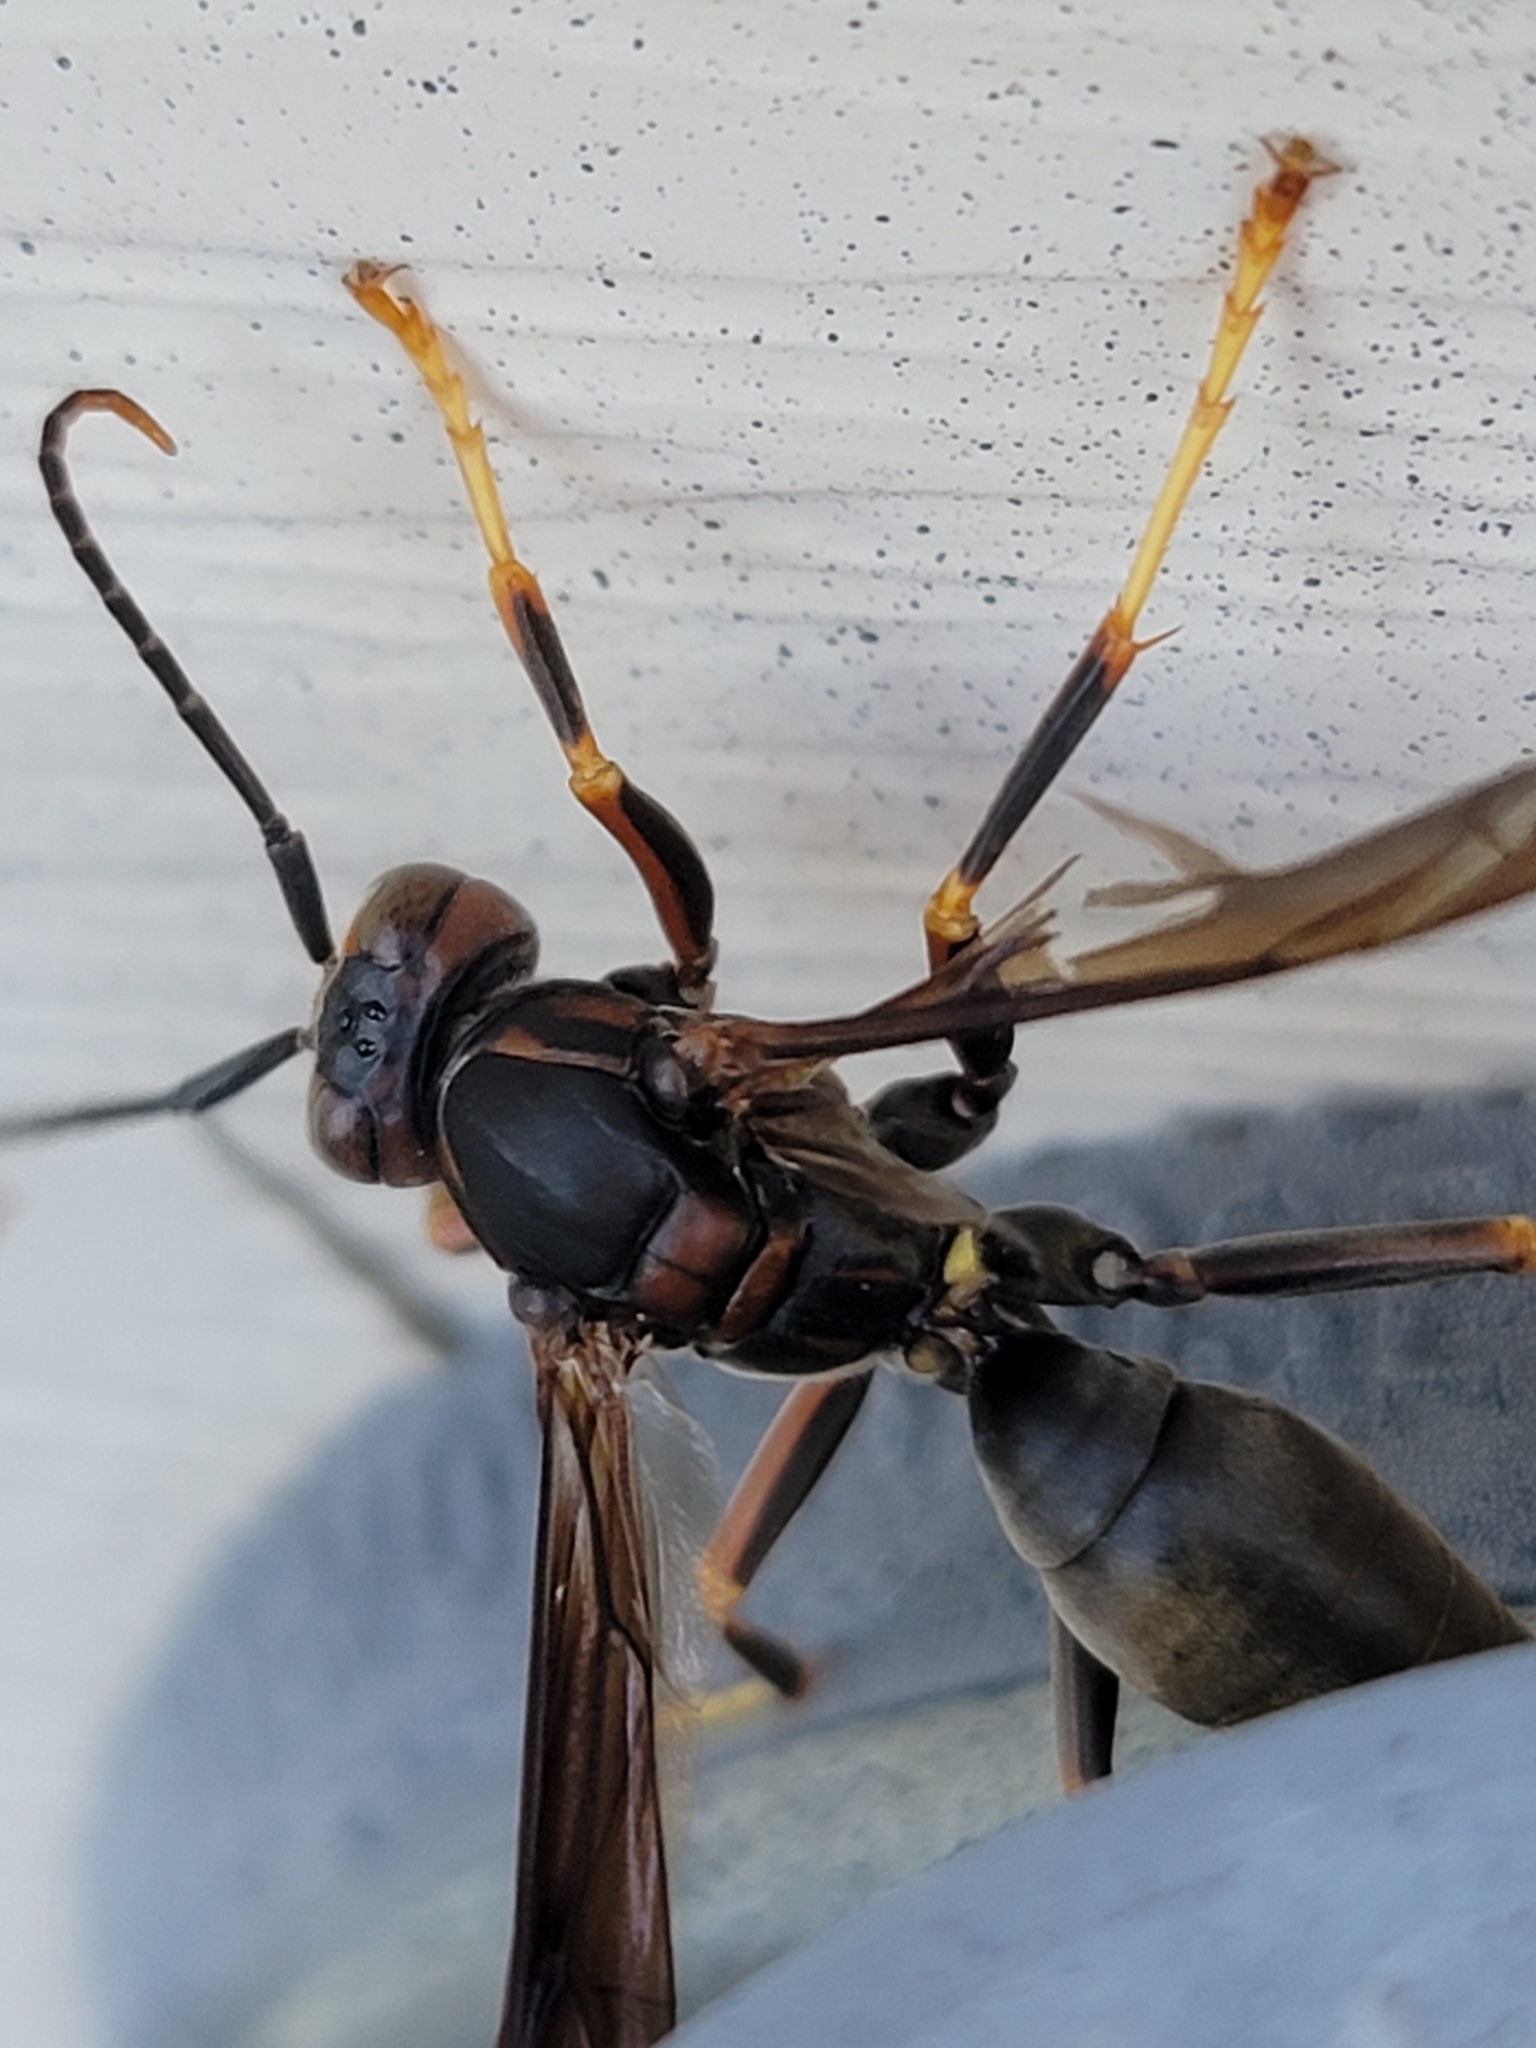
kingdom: Animalia
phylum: Arthropoda
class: Insecta
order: Hymenoptera
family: Eumenidae
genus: Polistes
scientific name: Polistes metricus
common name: Metric paper wasp
